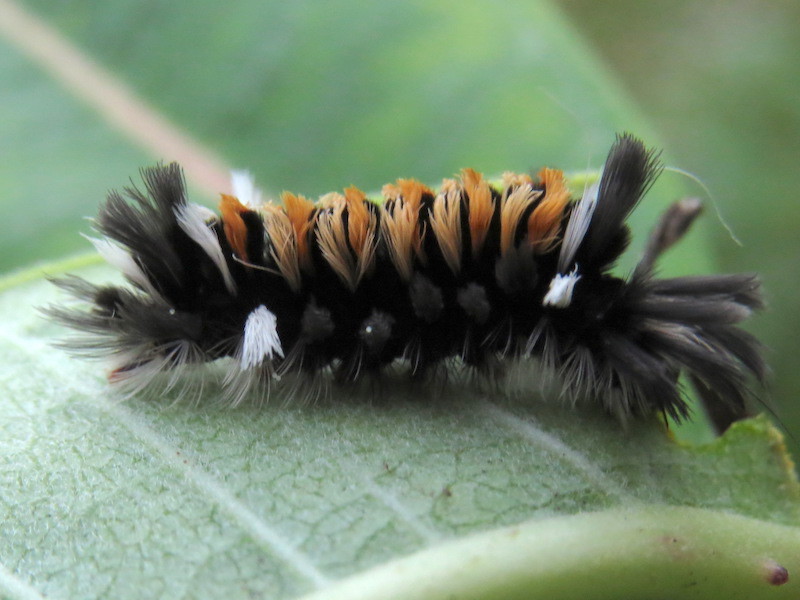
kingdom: Animalia
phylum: Arthropoda
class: Insecta
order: Lepidoptera
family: Erebidae
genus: Euchaetes
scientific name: Euchaetes egle
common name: Milkweed tussock moth
